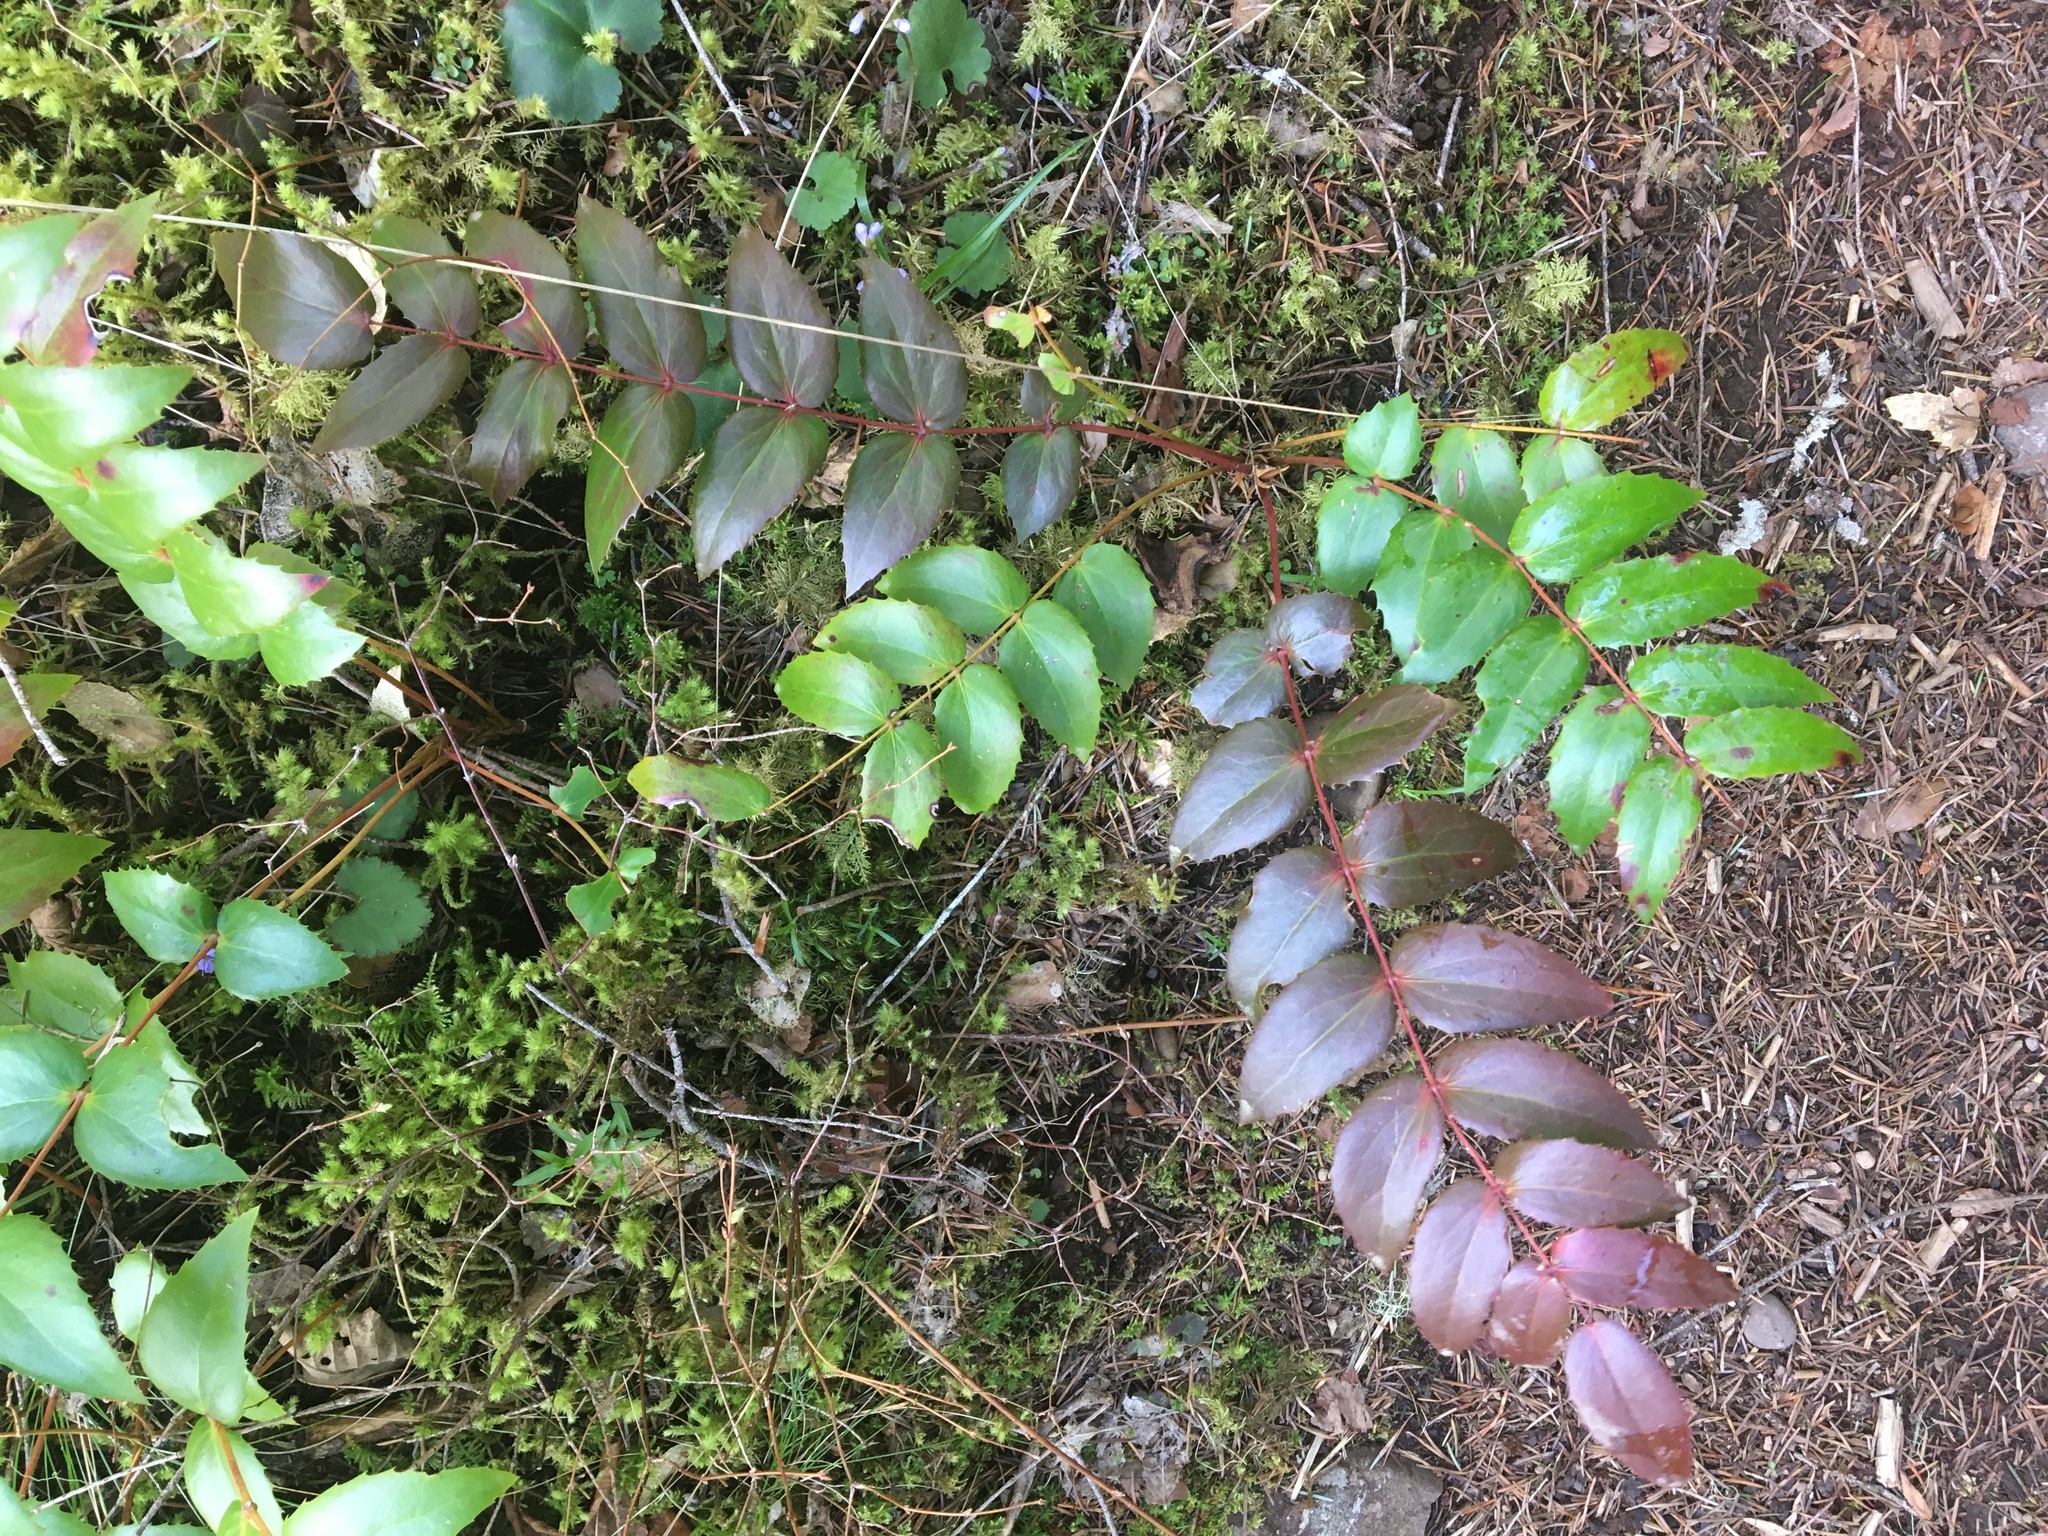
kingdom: Plantae
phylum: Tracheophyta
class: Magnoliopsida
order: Ranunculales
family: Berberidaceae
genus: Mahonia
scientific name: Mahonia nervosa
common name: Cascade oregon-grape
